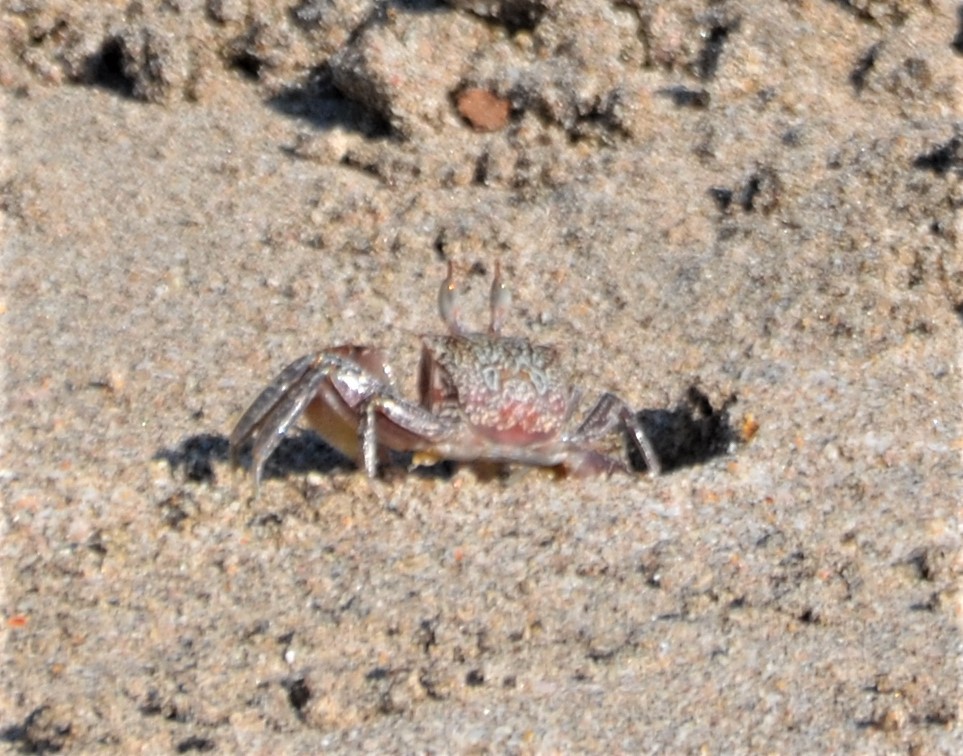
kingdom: Animalia
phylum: Arthropoda
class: Malacostraca
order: Decapoda
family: Ocypodidae
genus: Ocypode
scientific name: Ocypode gaudichaudii
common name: Pacific ghost crab
